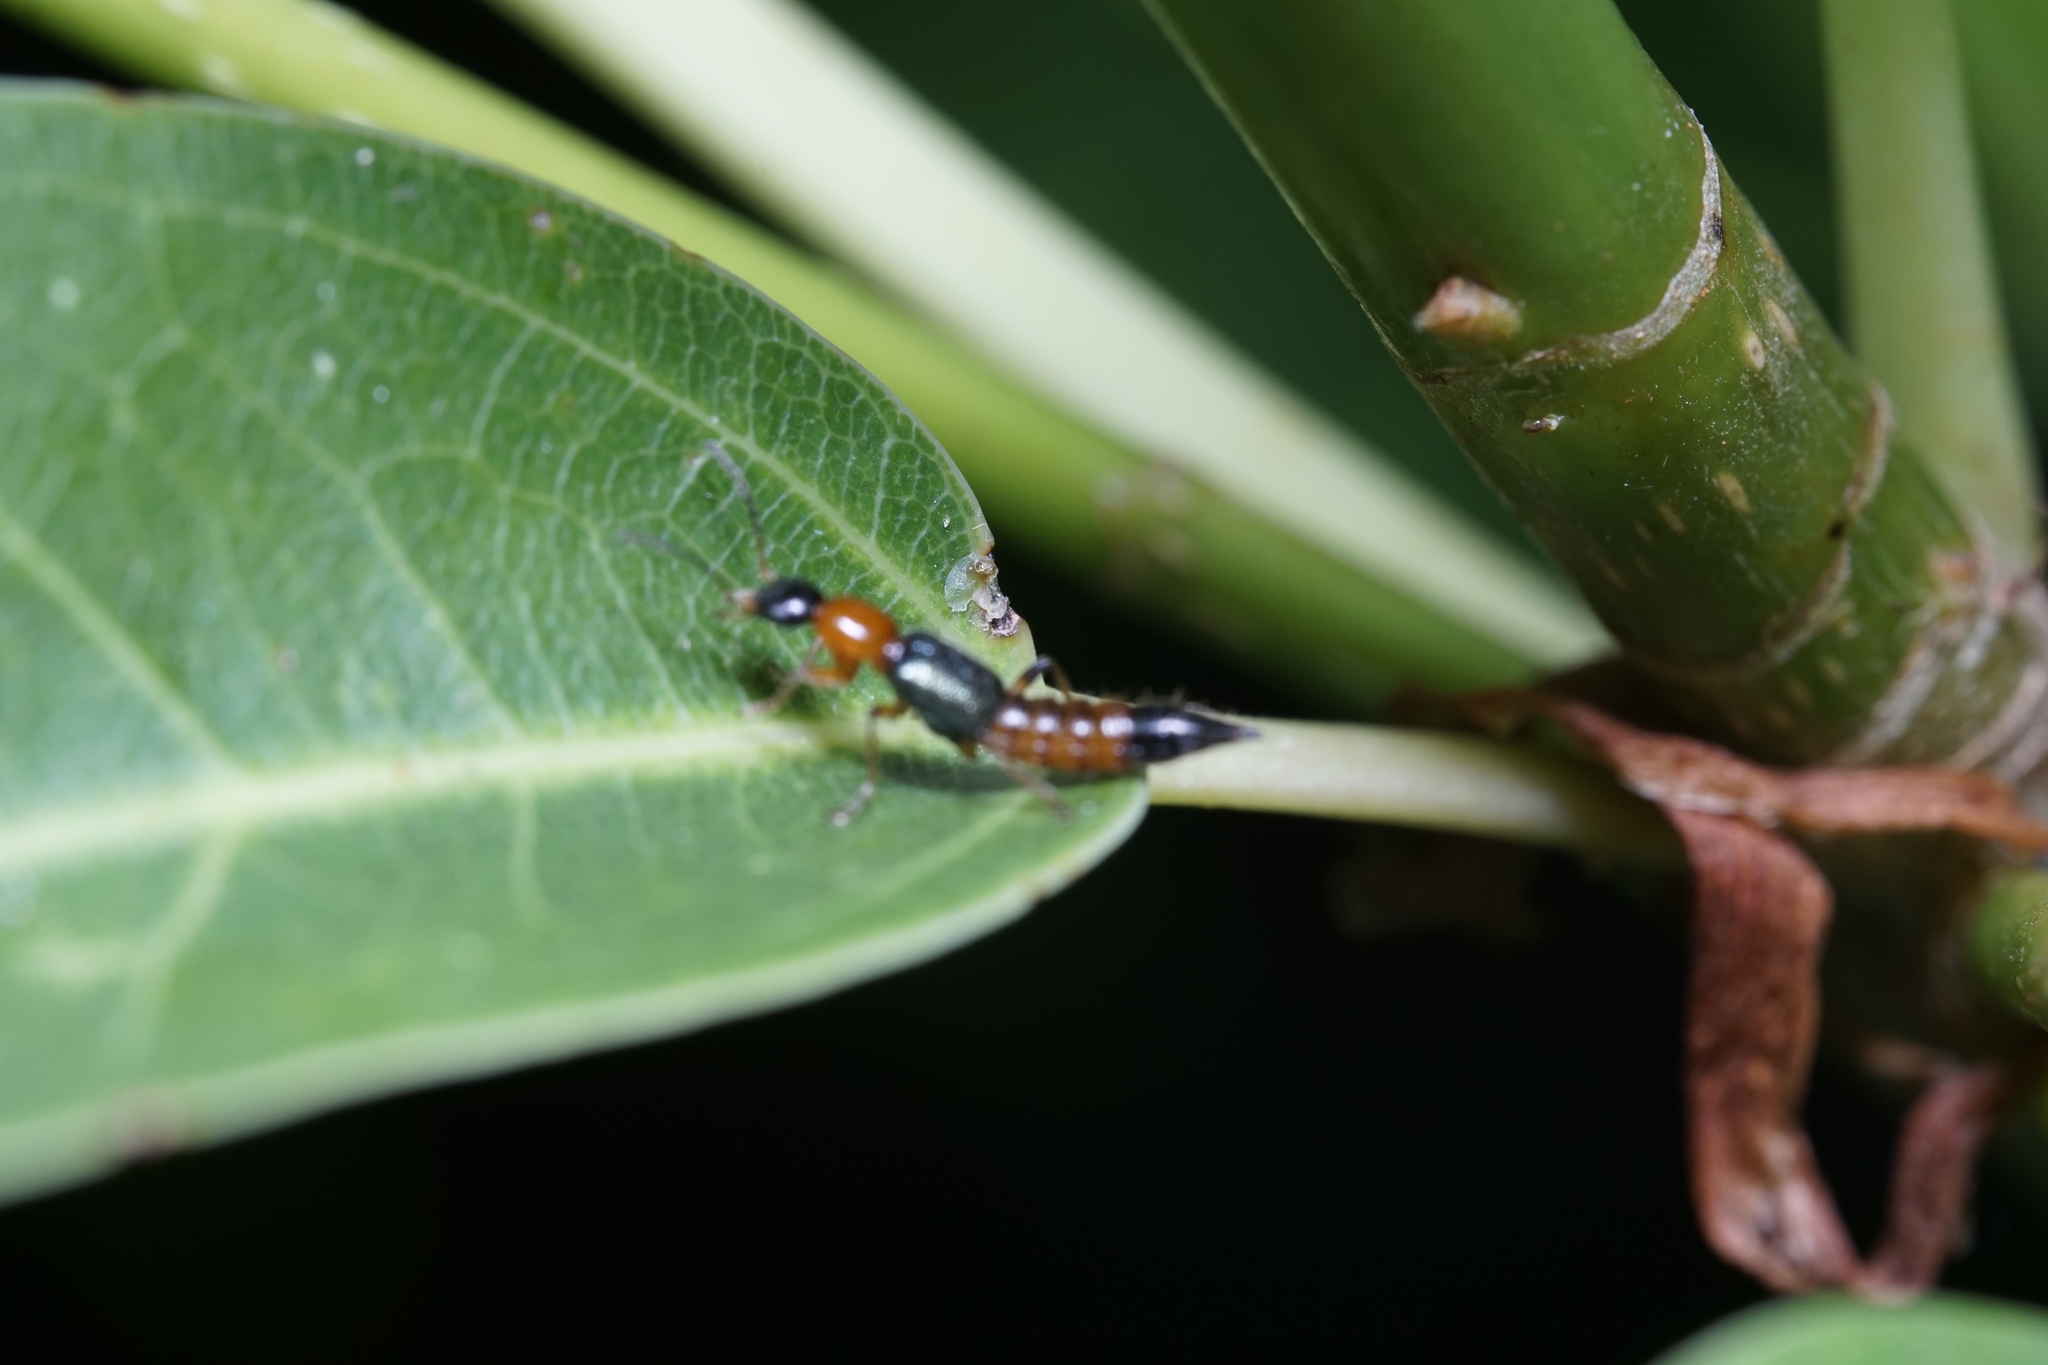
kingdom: Animalia
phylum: Arthropoda
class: Insecta
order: Coleoptera
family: Staphylinidae
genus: Paederus
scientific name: Paederus fuscipes
